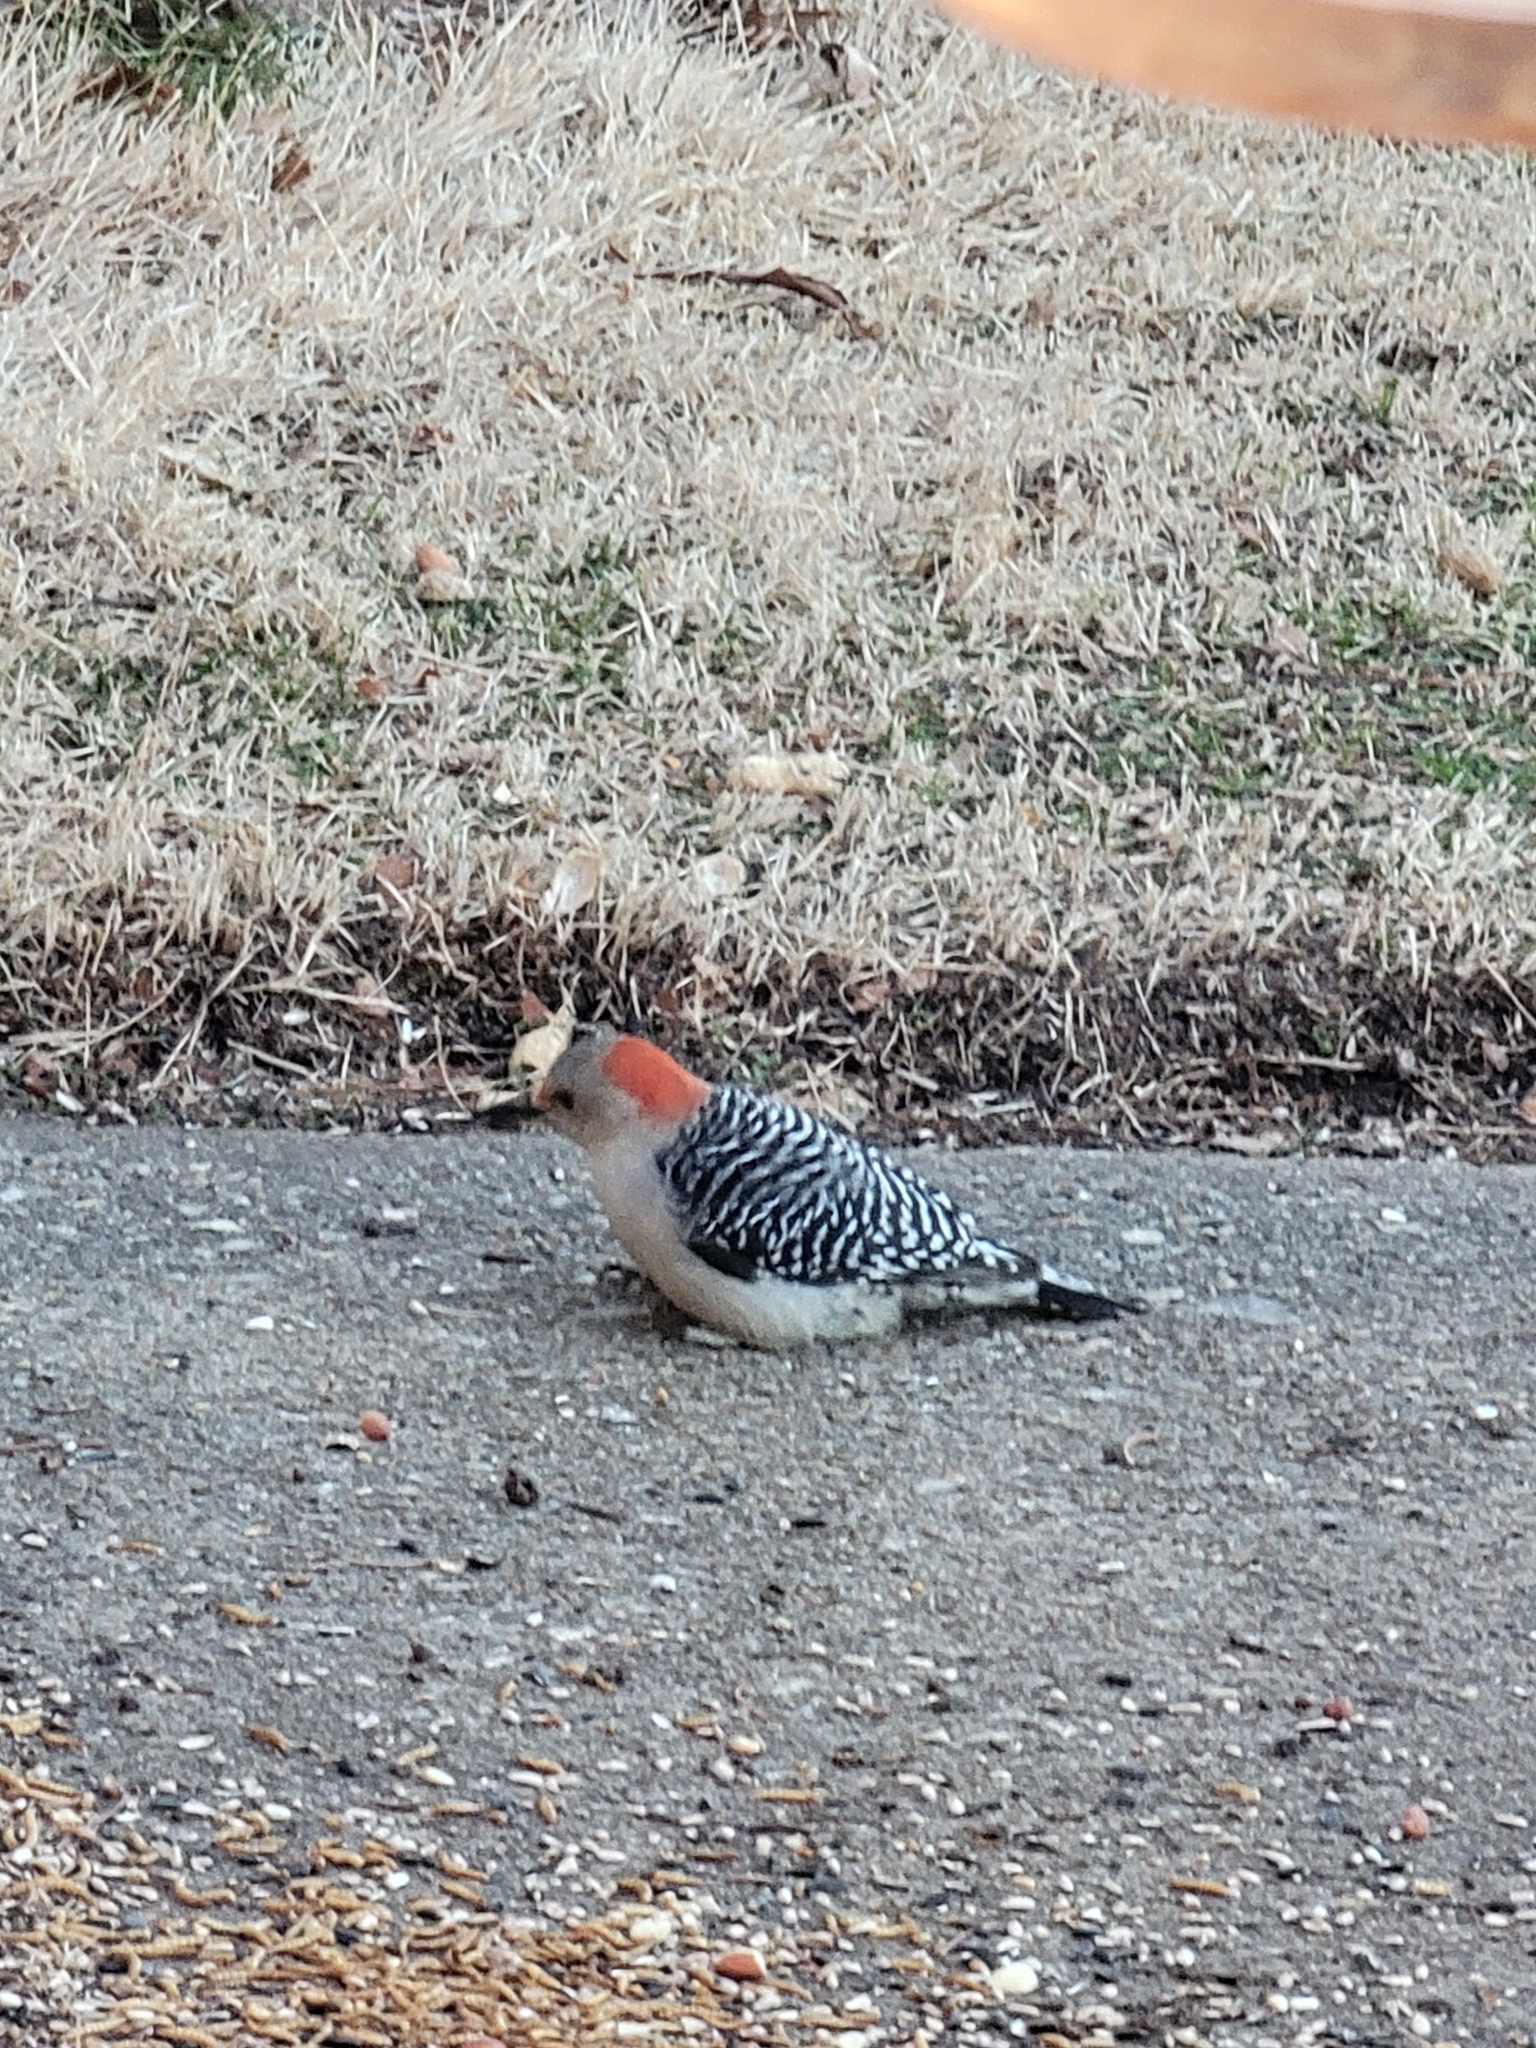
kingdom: Animalia
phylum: Chordata
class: Aves
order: Piciformes
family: Picidae
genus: Melanerpes
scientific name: Melanerpes carolinus
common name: Red-bellied woodpecker
